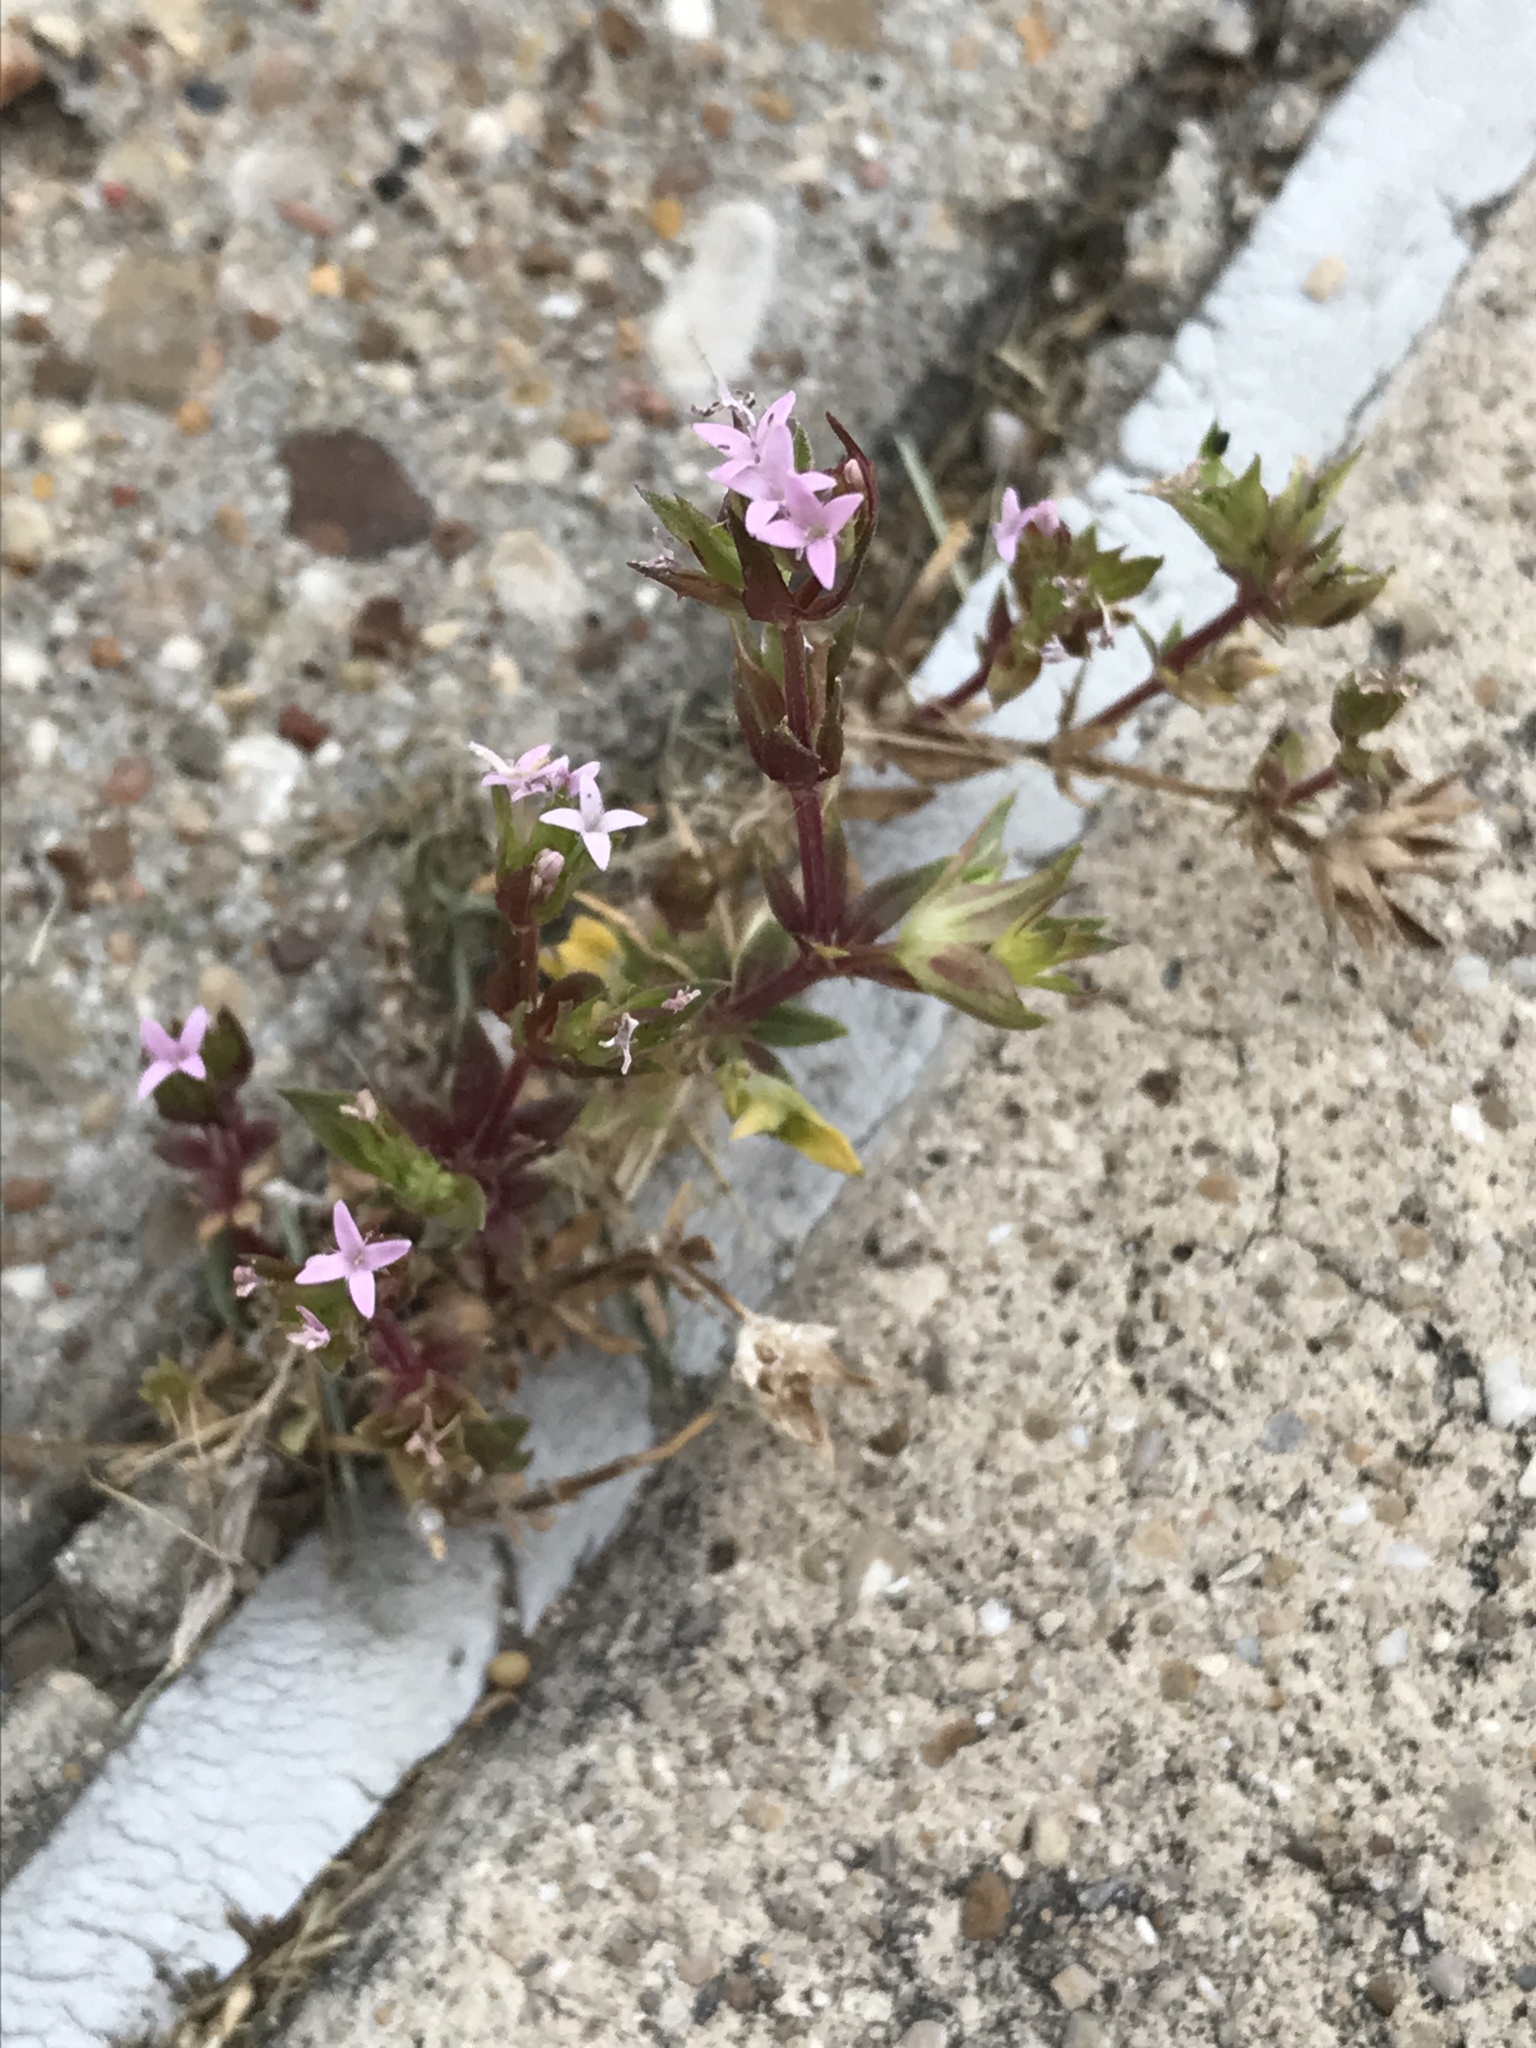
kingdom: Plantae
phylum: Tracheophyta
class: Magnoliopsida
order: Gentianales
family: Rubiaceae
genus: Sherardia
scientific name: Sherardia arvensis
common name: Field madder
